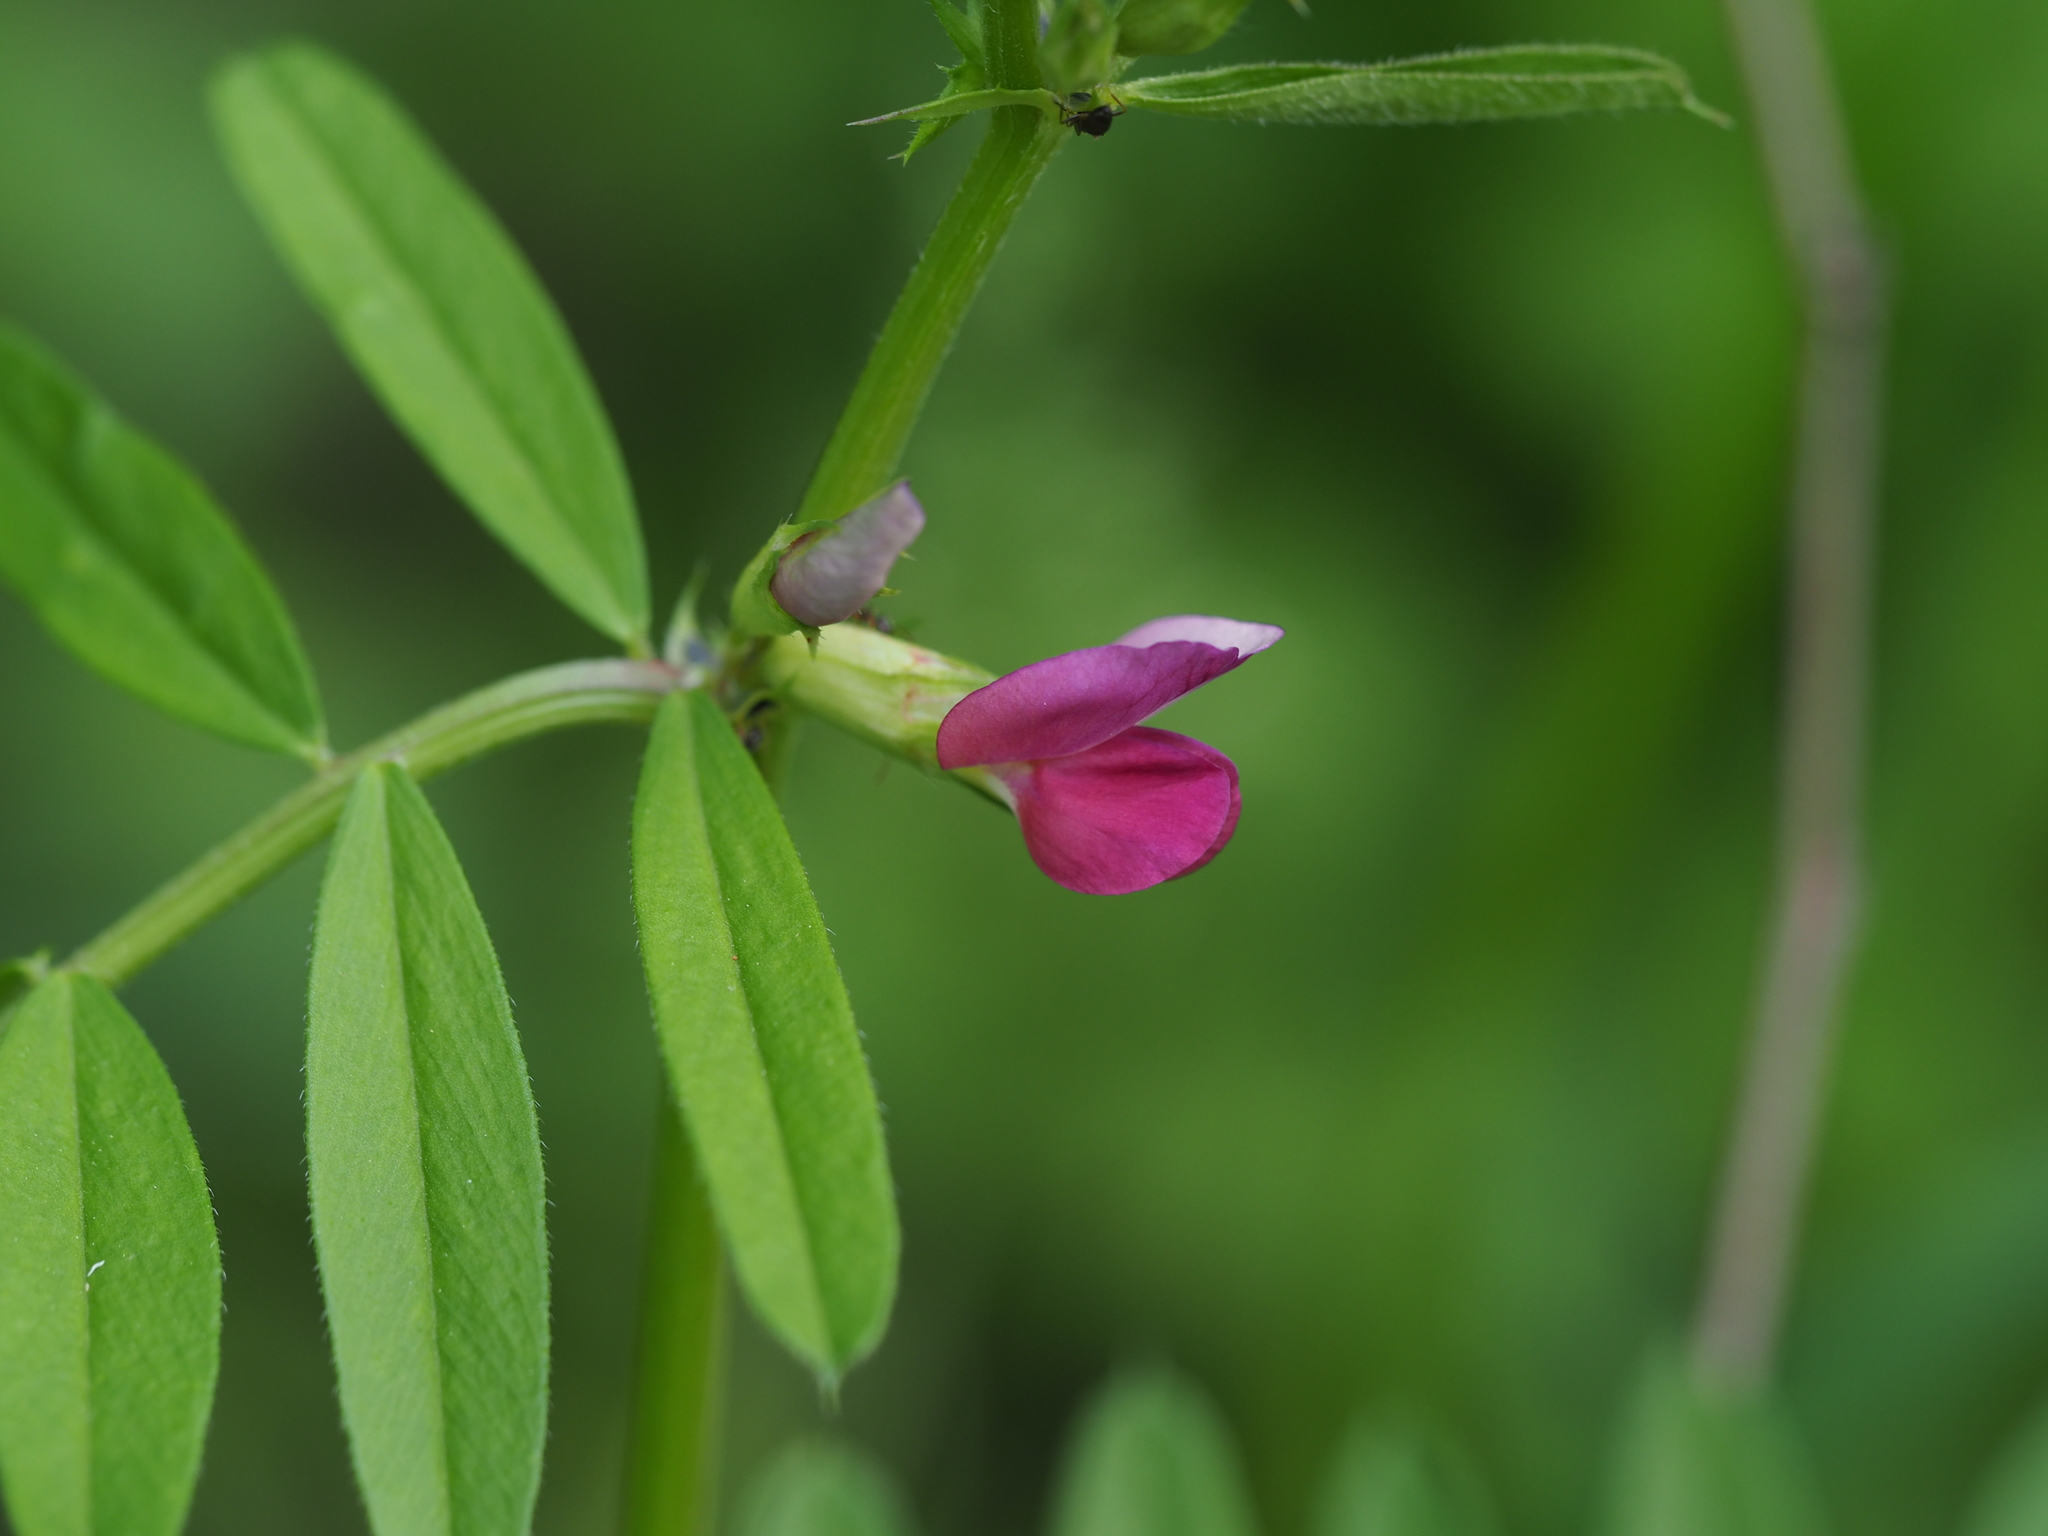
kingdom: Plantae
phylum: Tracheophyta
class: Magnoliopsida
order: Fabales
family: Fabaceae
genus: Vicia
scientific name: Vicia sativa
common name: Garden vetch
